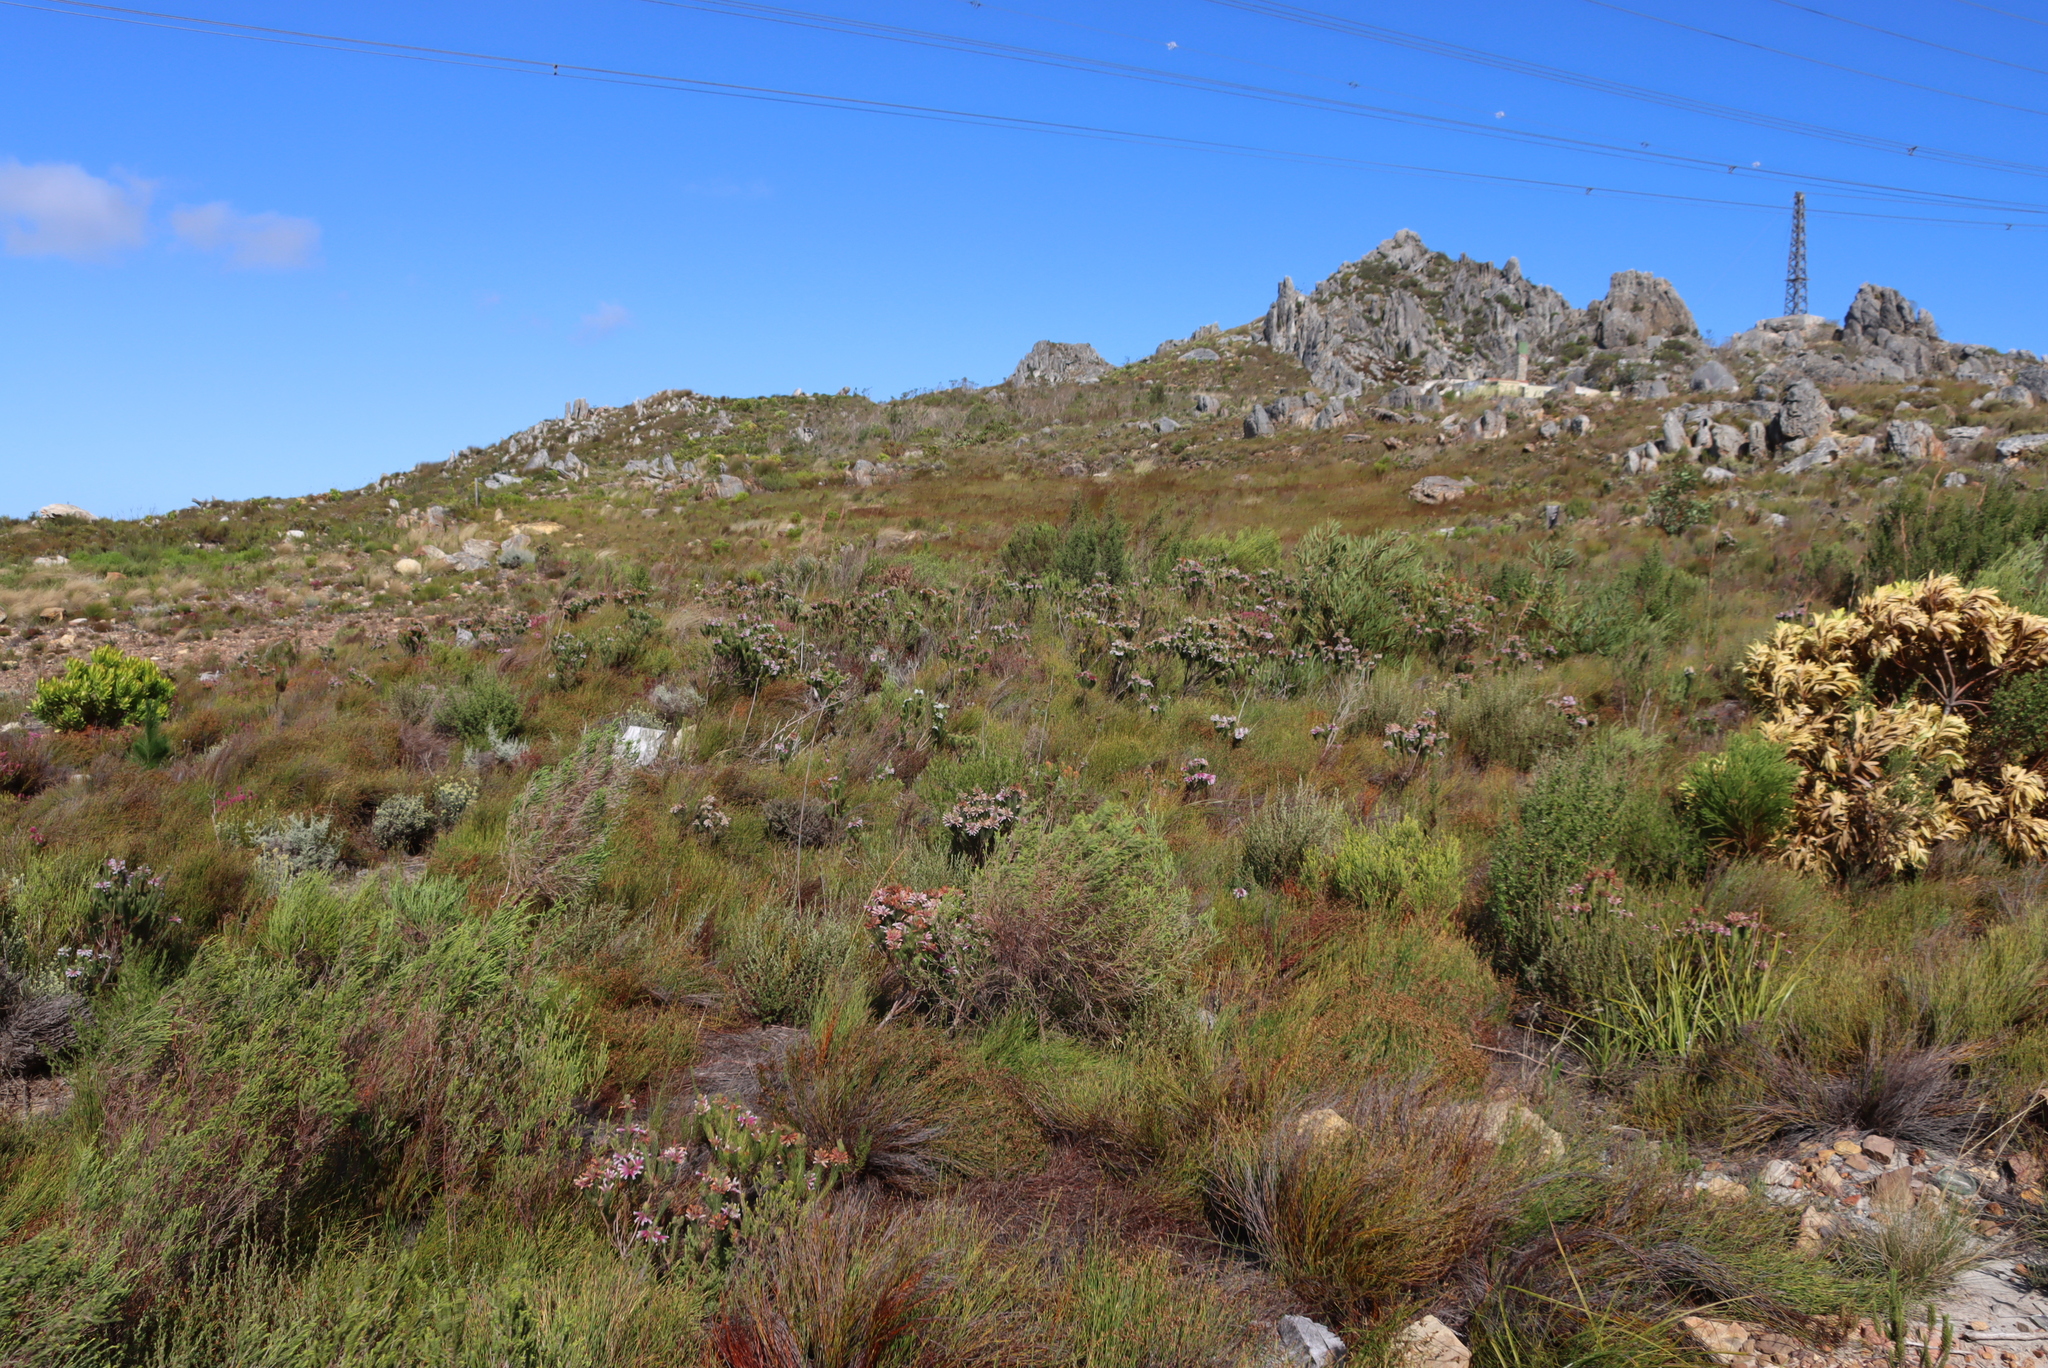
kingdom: Plantae
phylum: Tracheophyta
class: Magnoliopsida
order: Ericales
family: Ericaceae
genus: Erica
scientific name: Erica viscaria
